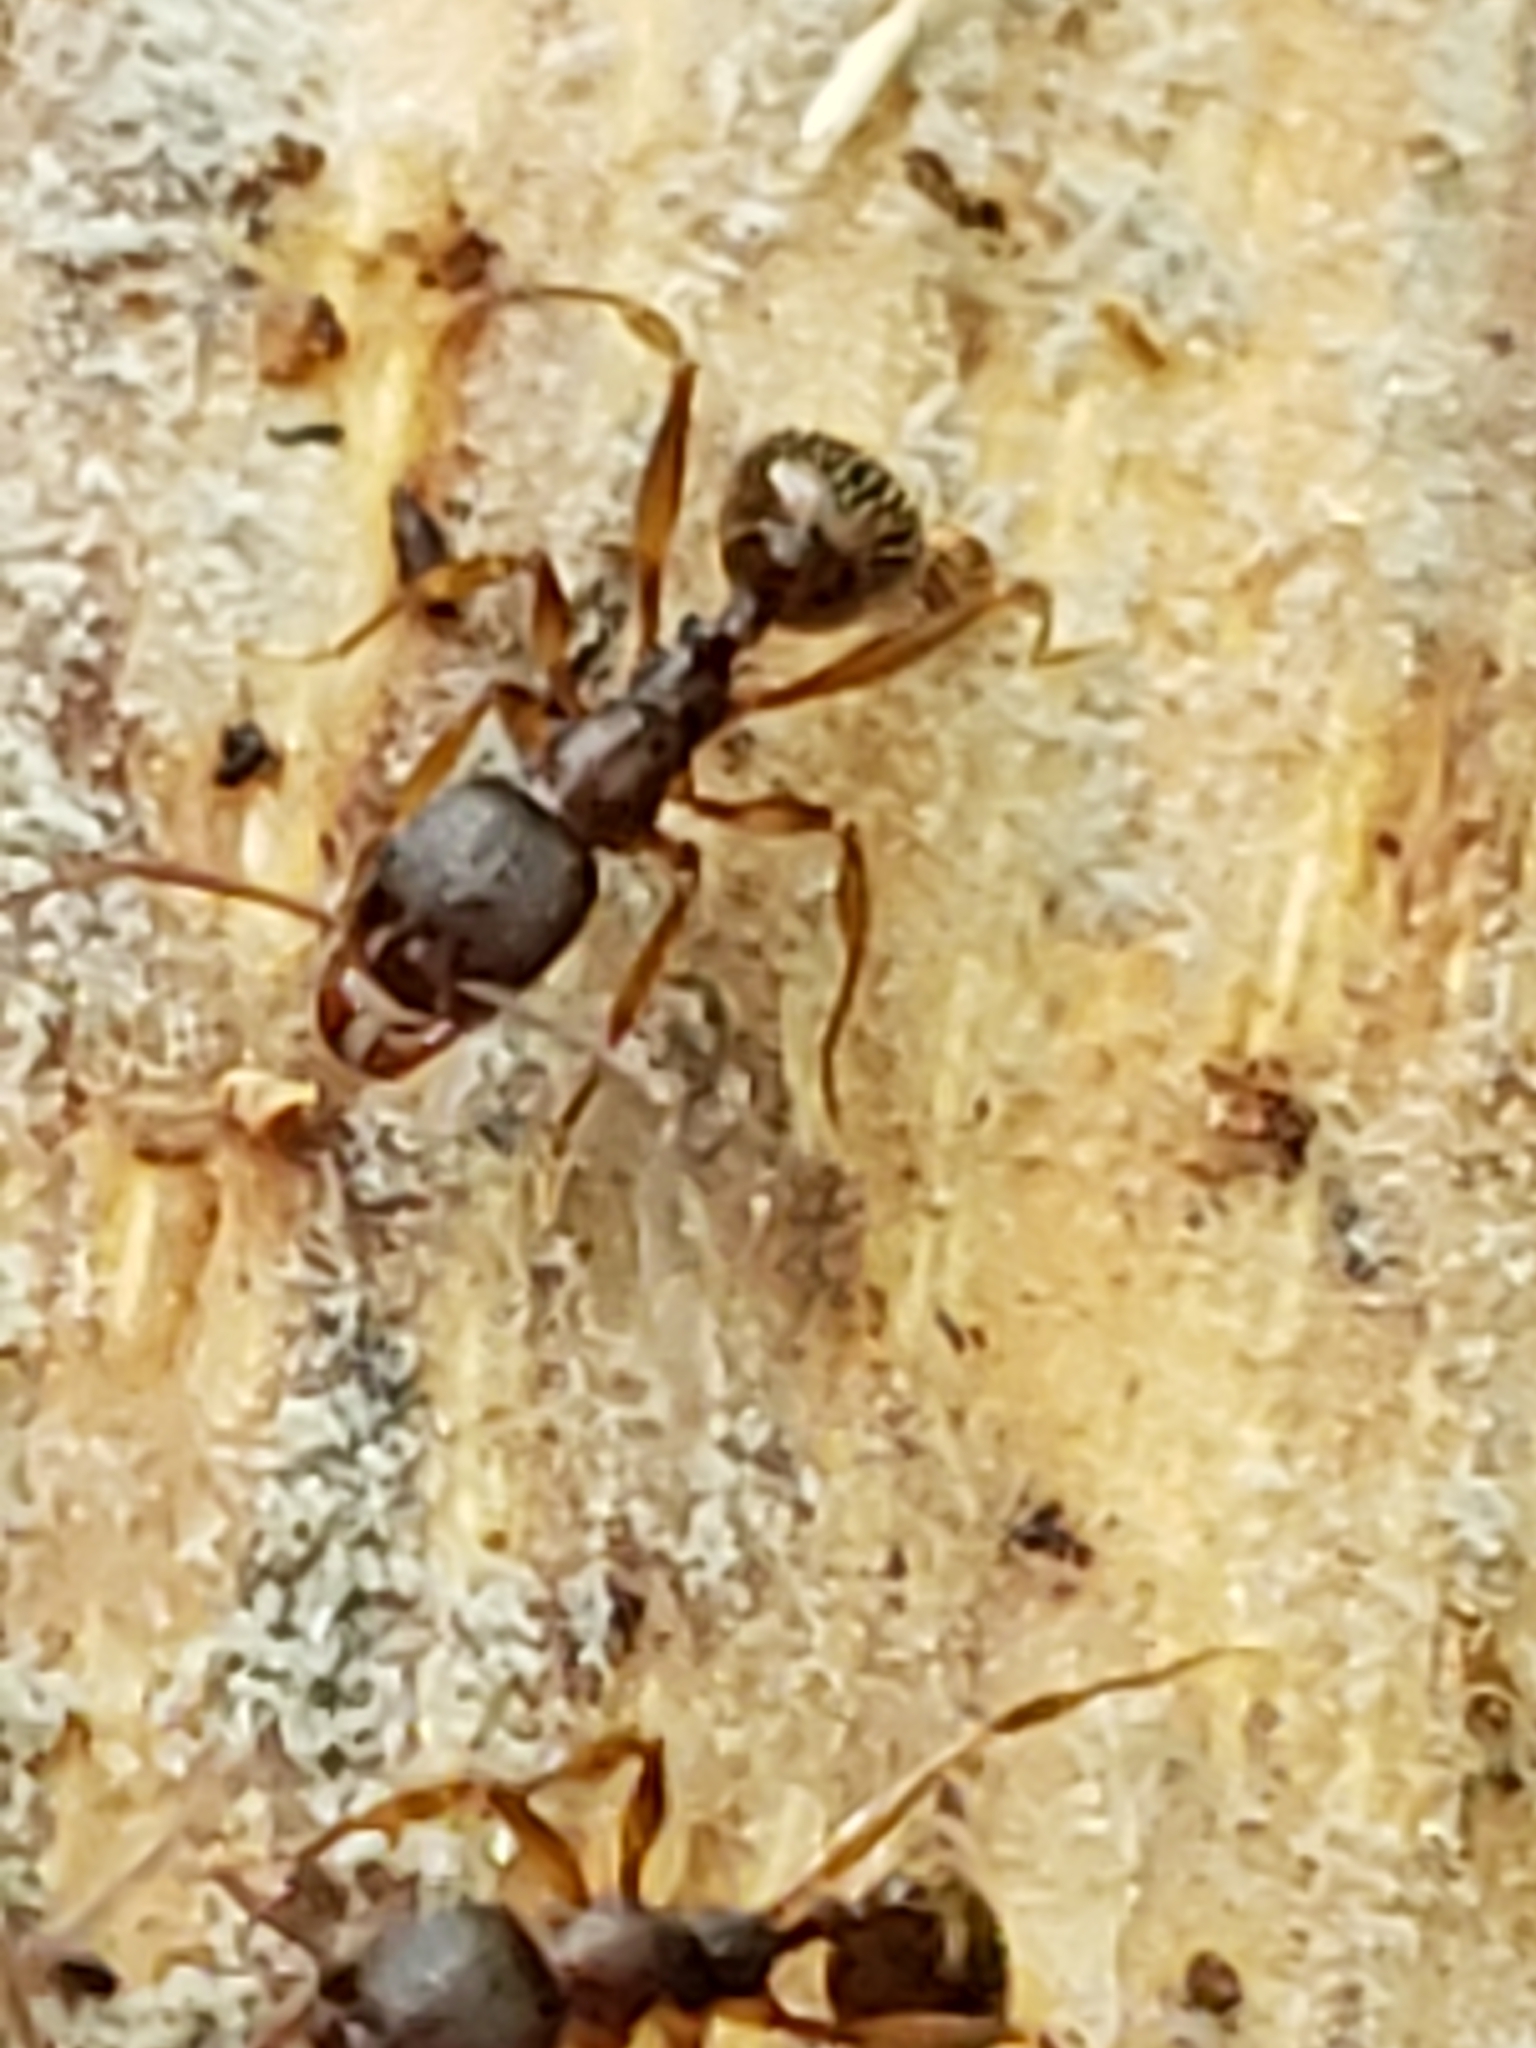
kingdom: Animalia
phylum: Arthropoda
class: Insecta
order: Hymenoptera
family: Formicidae
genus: Aphaenogaster
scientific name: Aphaenogaster rudis
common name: Winnow ant
